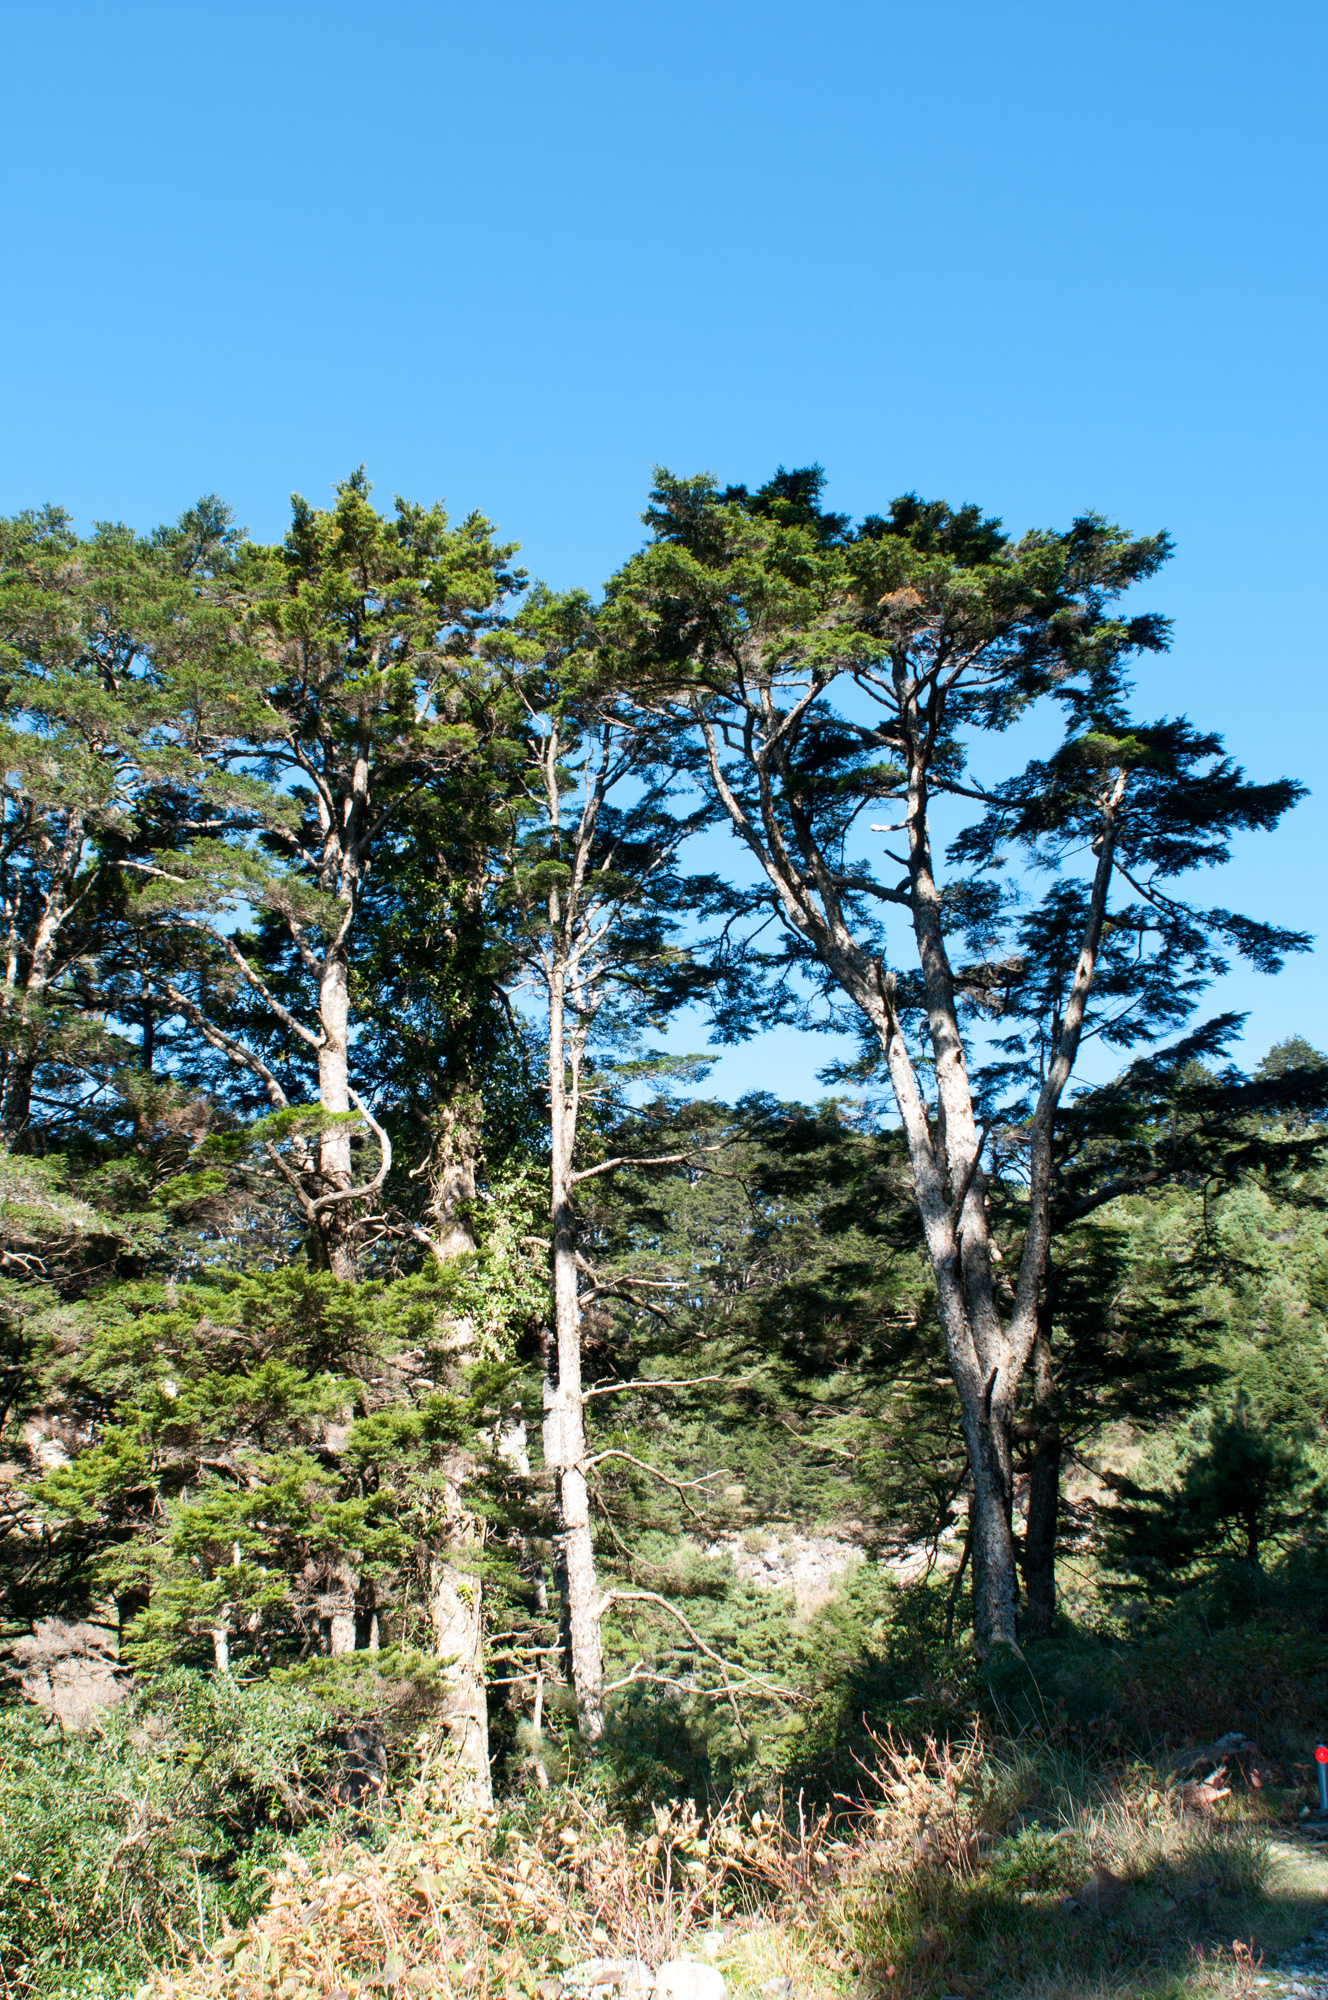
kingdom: Plantae
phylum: Tracheophyta
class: Pinopsida
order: Pinales
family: Pinaceae
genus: Tsuga
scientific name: Tsuga chinensis
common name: Chinese hemlock
